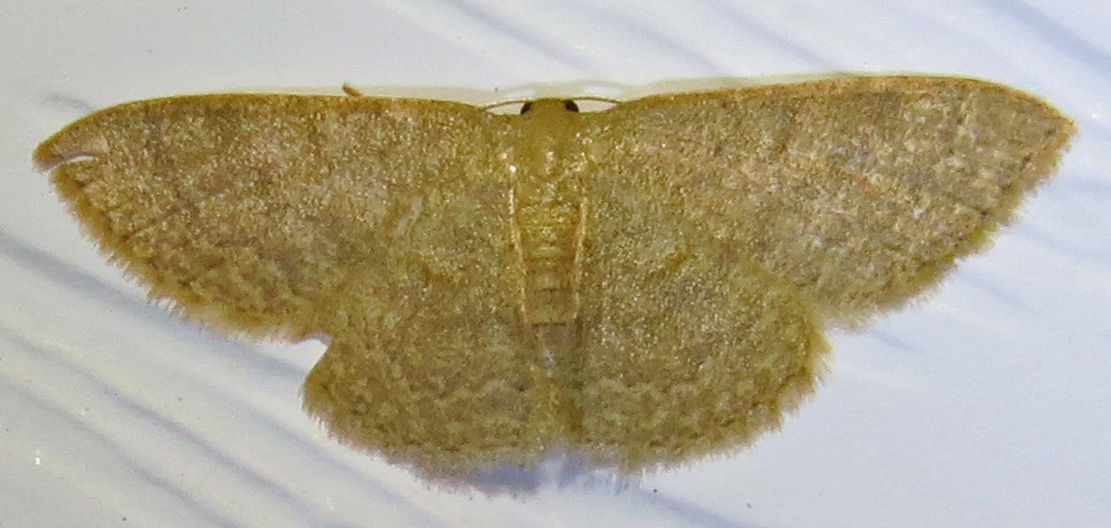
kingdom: Animalia
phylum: Arthropoda
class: Insecta
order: Lepidoptera
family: Geometridae
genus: Pleuroprucha
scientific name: Pleuroprucha insulsaria
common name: Common tan wave
